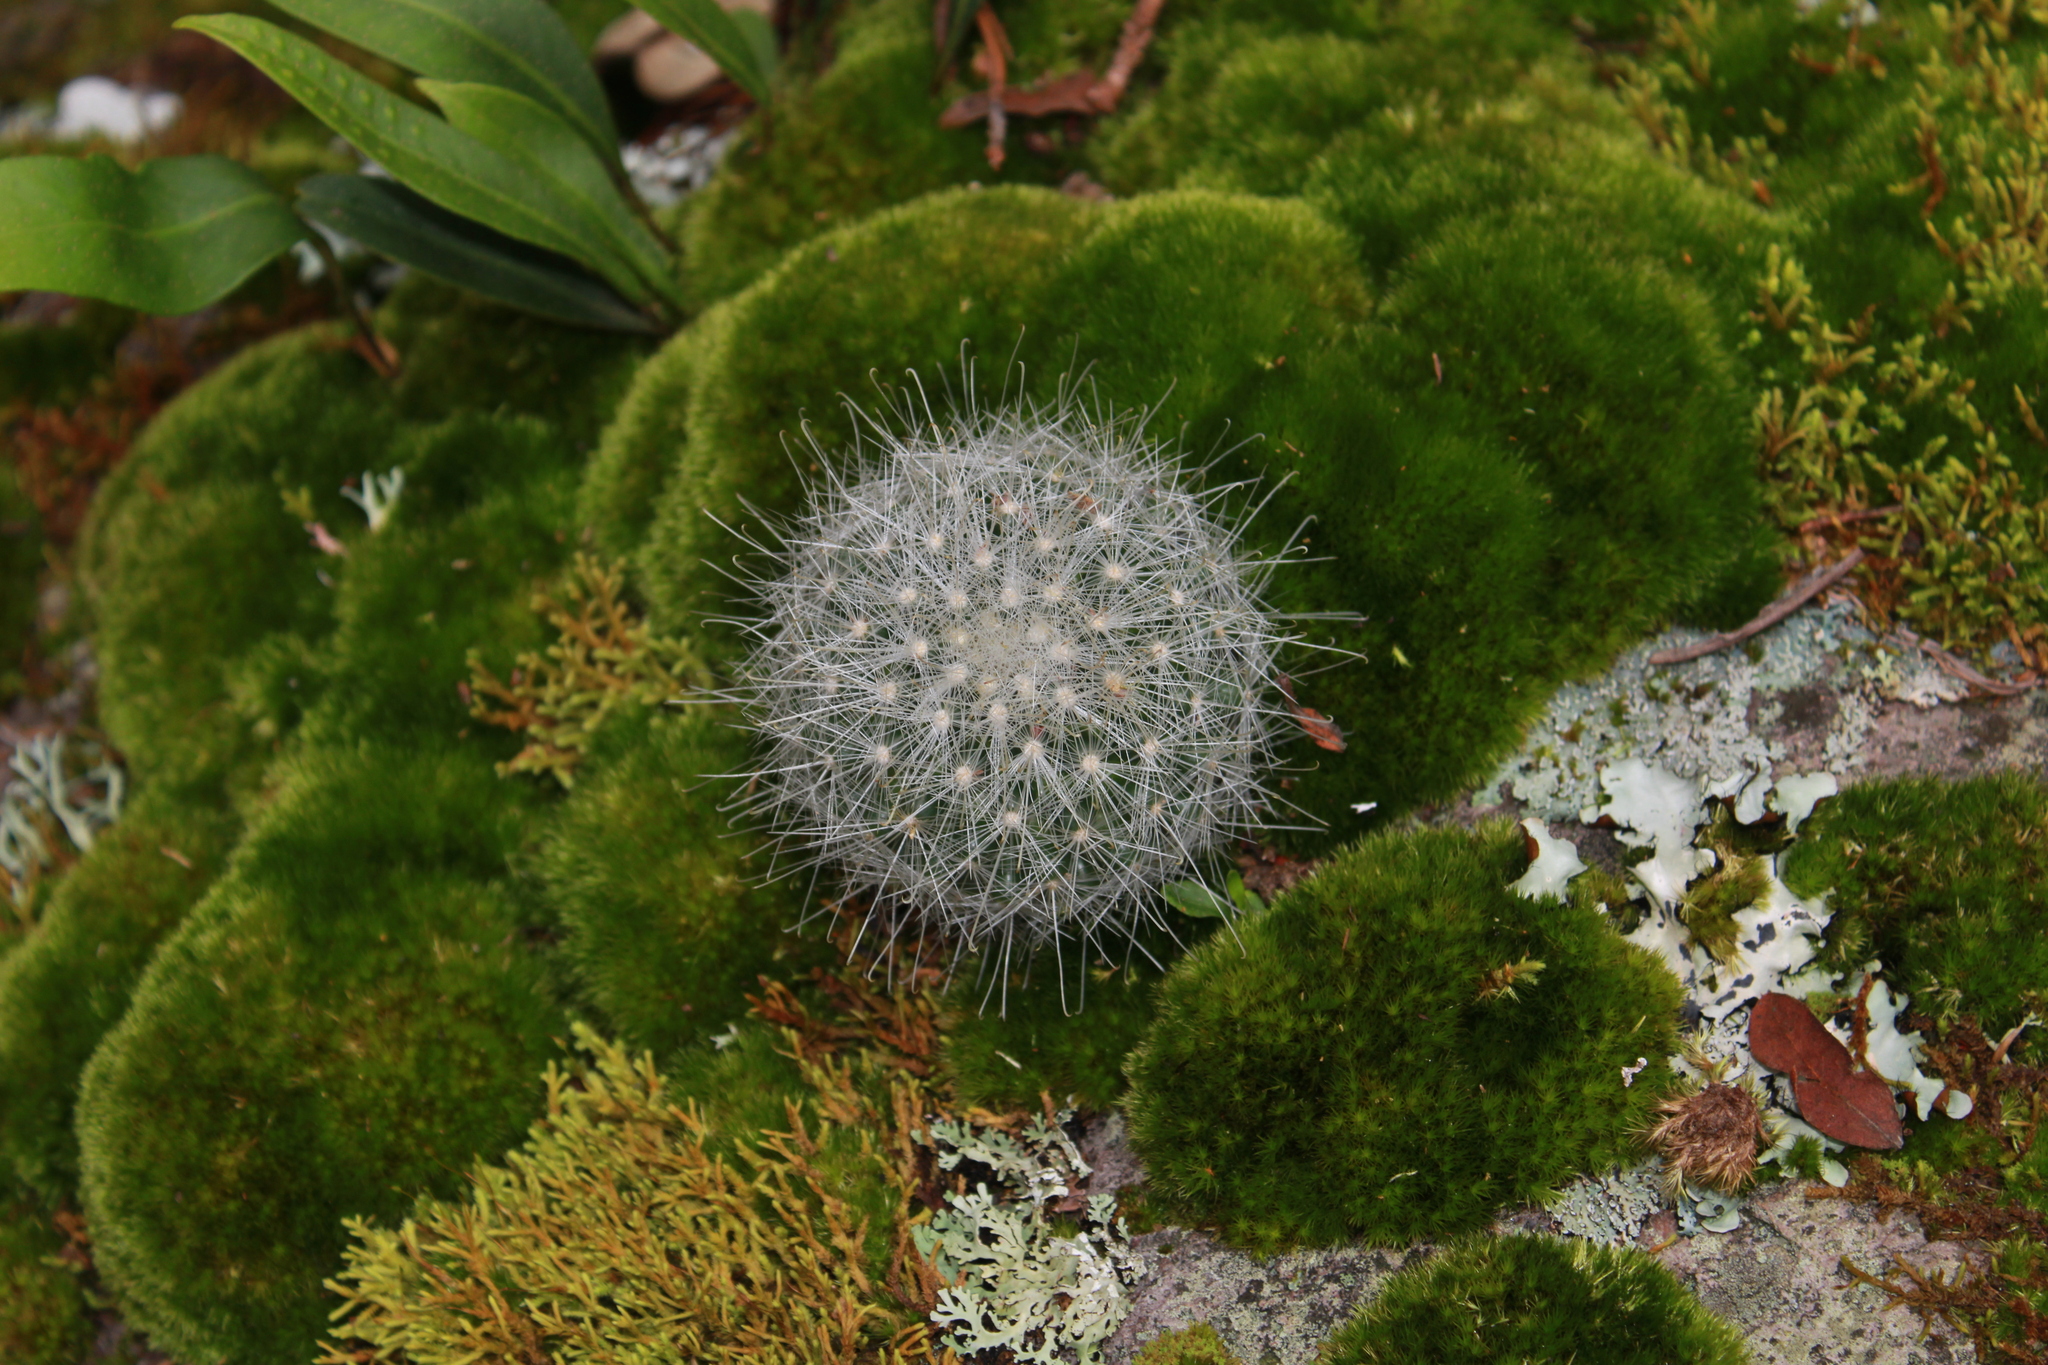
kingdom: Plantae
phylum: Tracheophyta
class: Magnoliopsida
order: Caryophyllales
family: Cactaceae
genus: Mammillaria
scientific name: Mammillaria senilis
